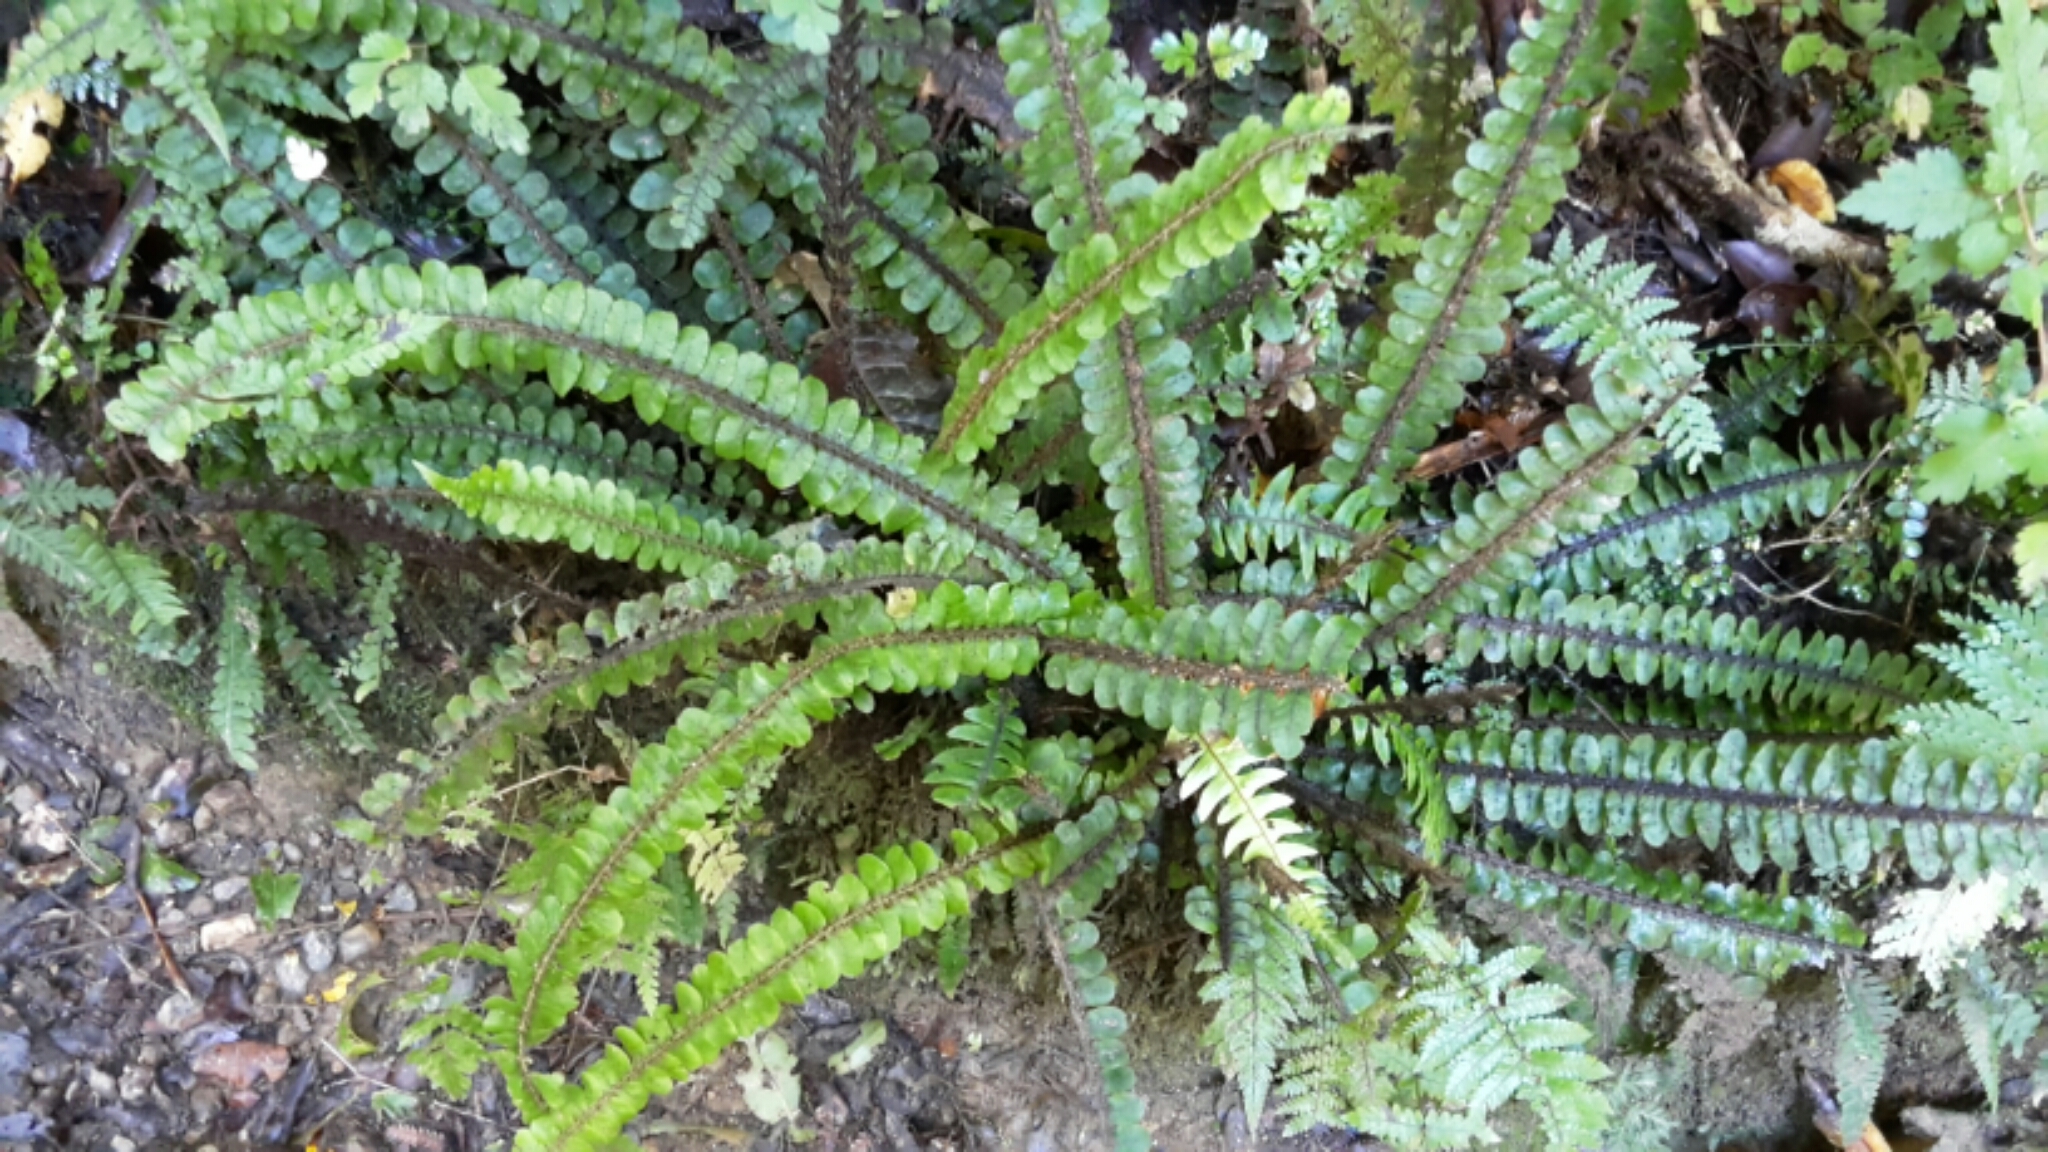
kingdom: Plantae
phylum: Tracheophyta
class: Polypodiopsida
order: Polypodiales
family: Blechnaceae
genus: Cranfillia
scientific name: Cranfillia fluviatilis
